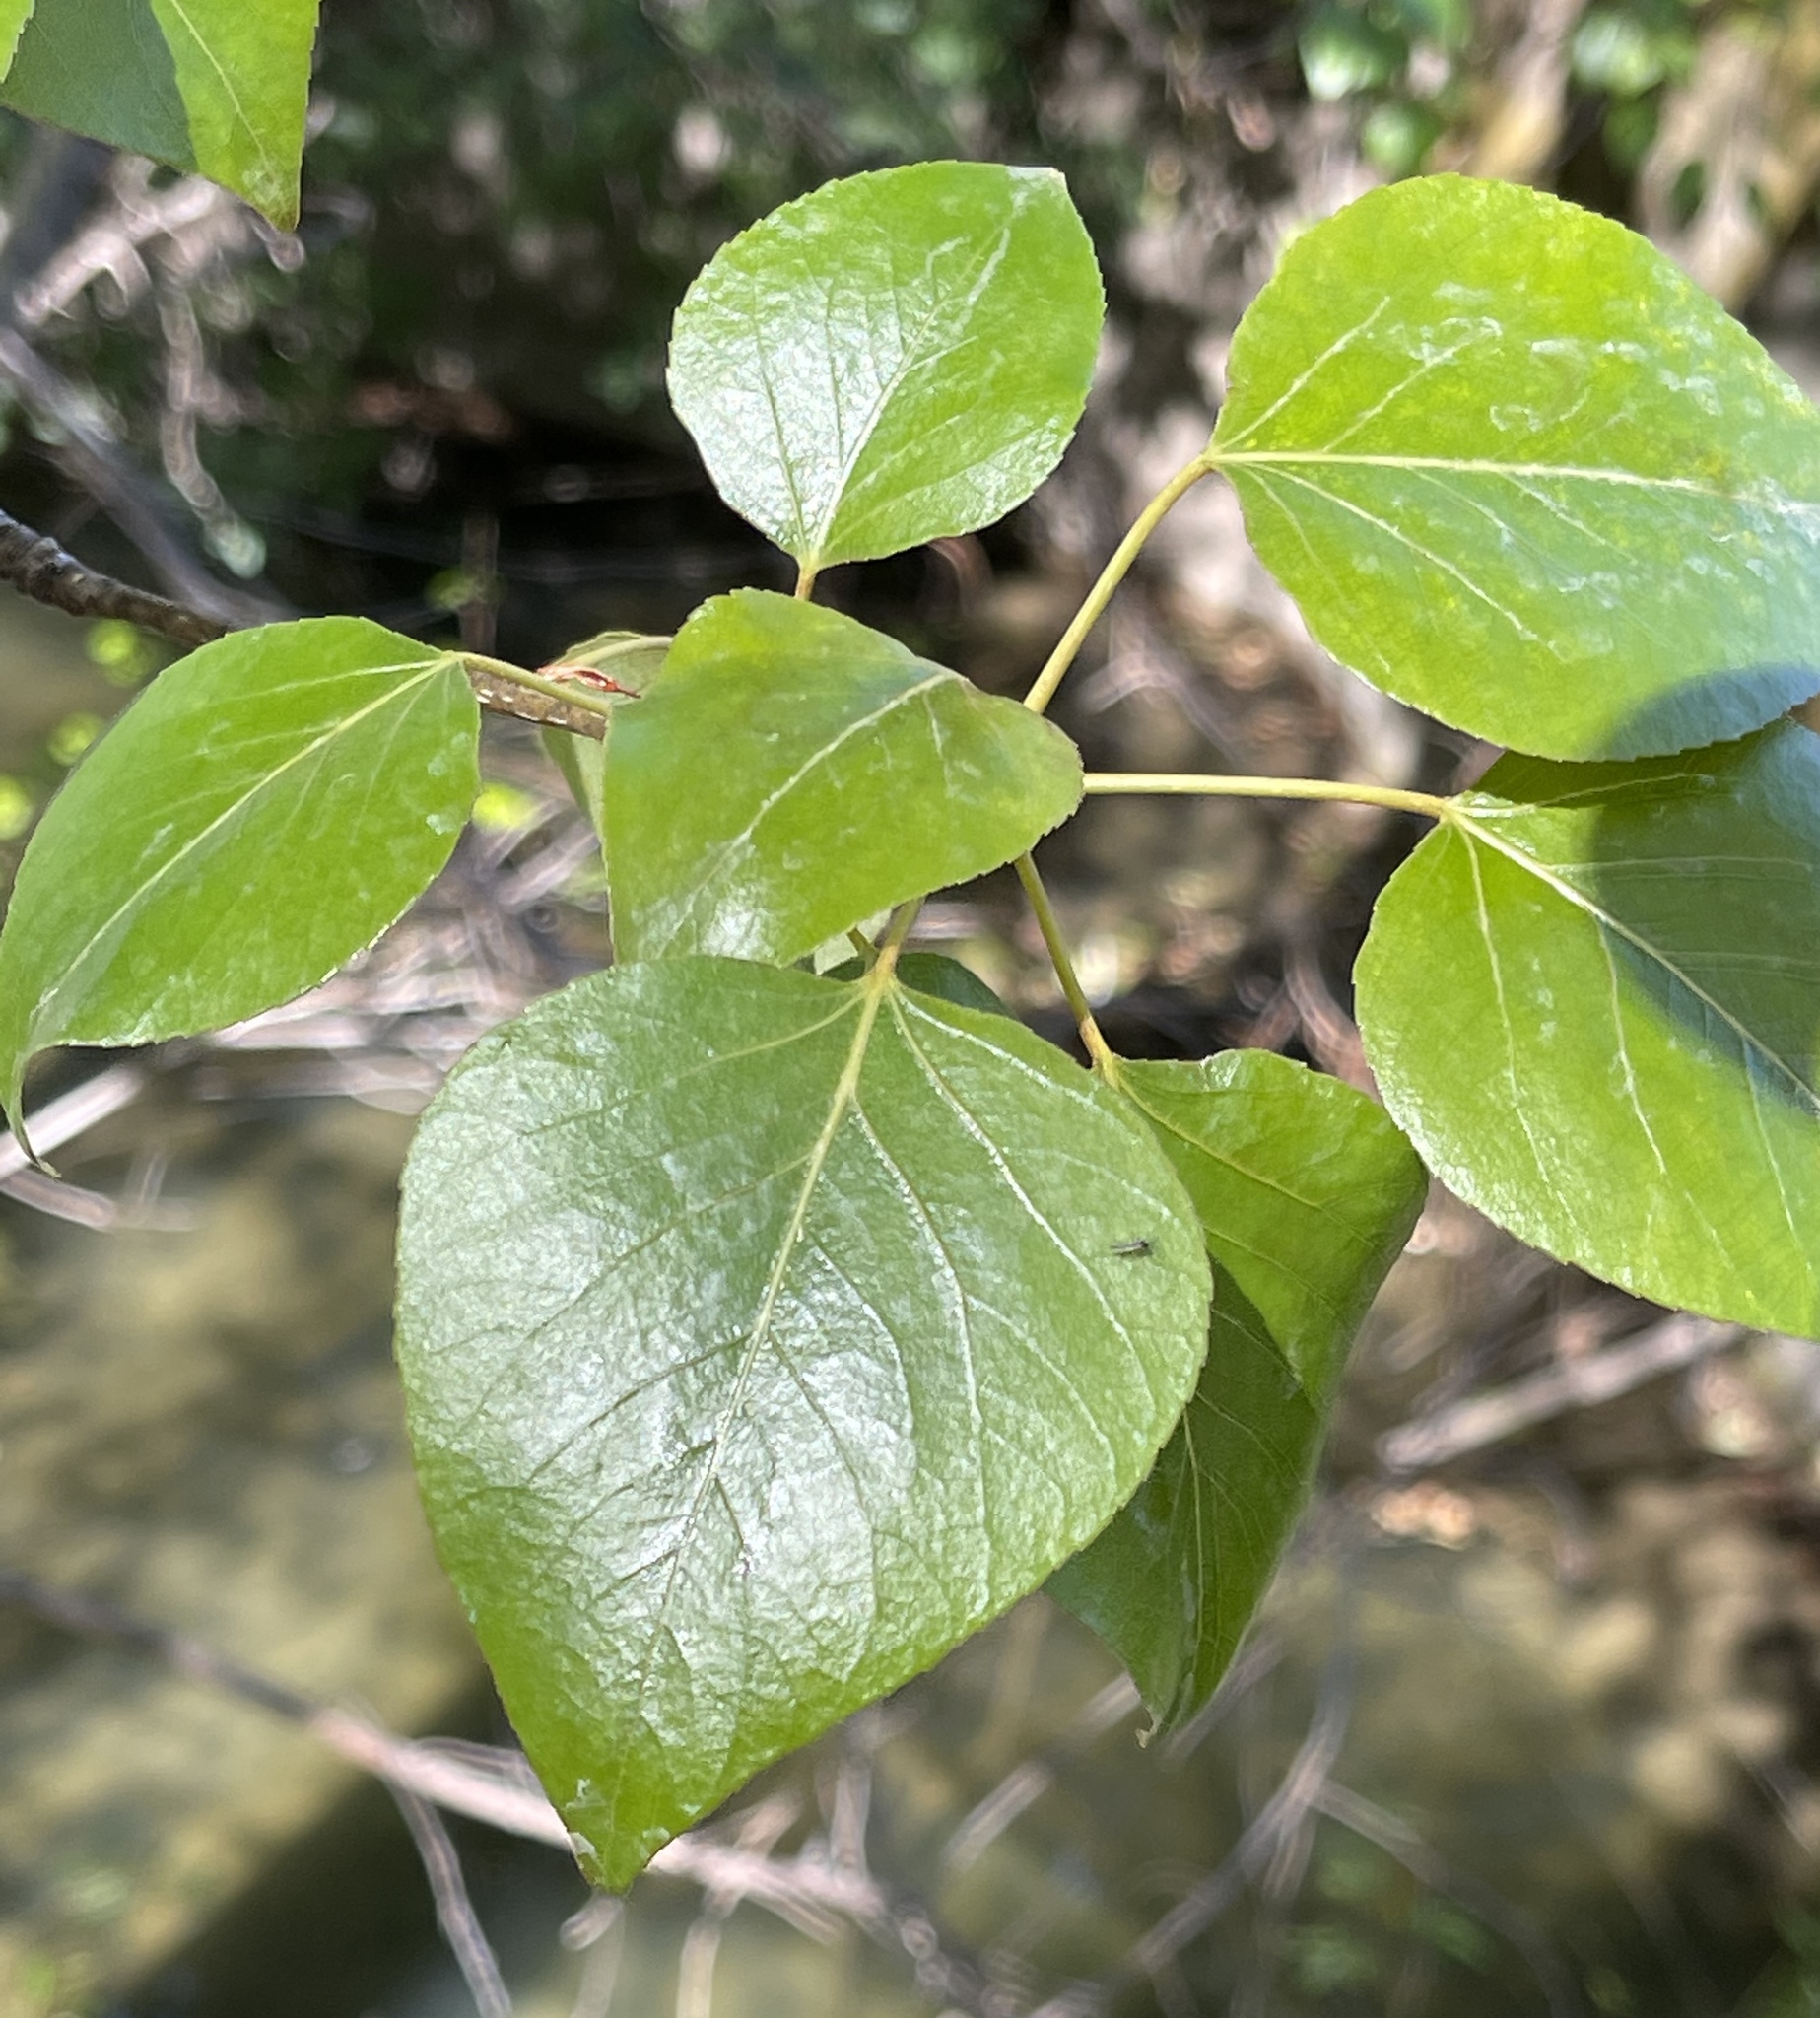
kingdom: Plantae
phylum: Tracheophyta
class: Magnoliopsida
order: Malpighiales
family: Salicaceae
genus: Populus
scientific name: Populus trichocarpa
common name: Black cottonwood
